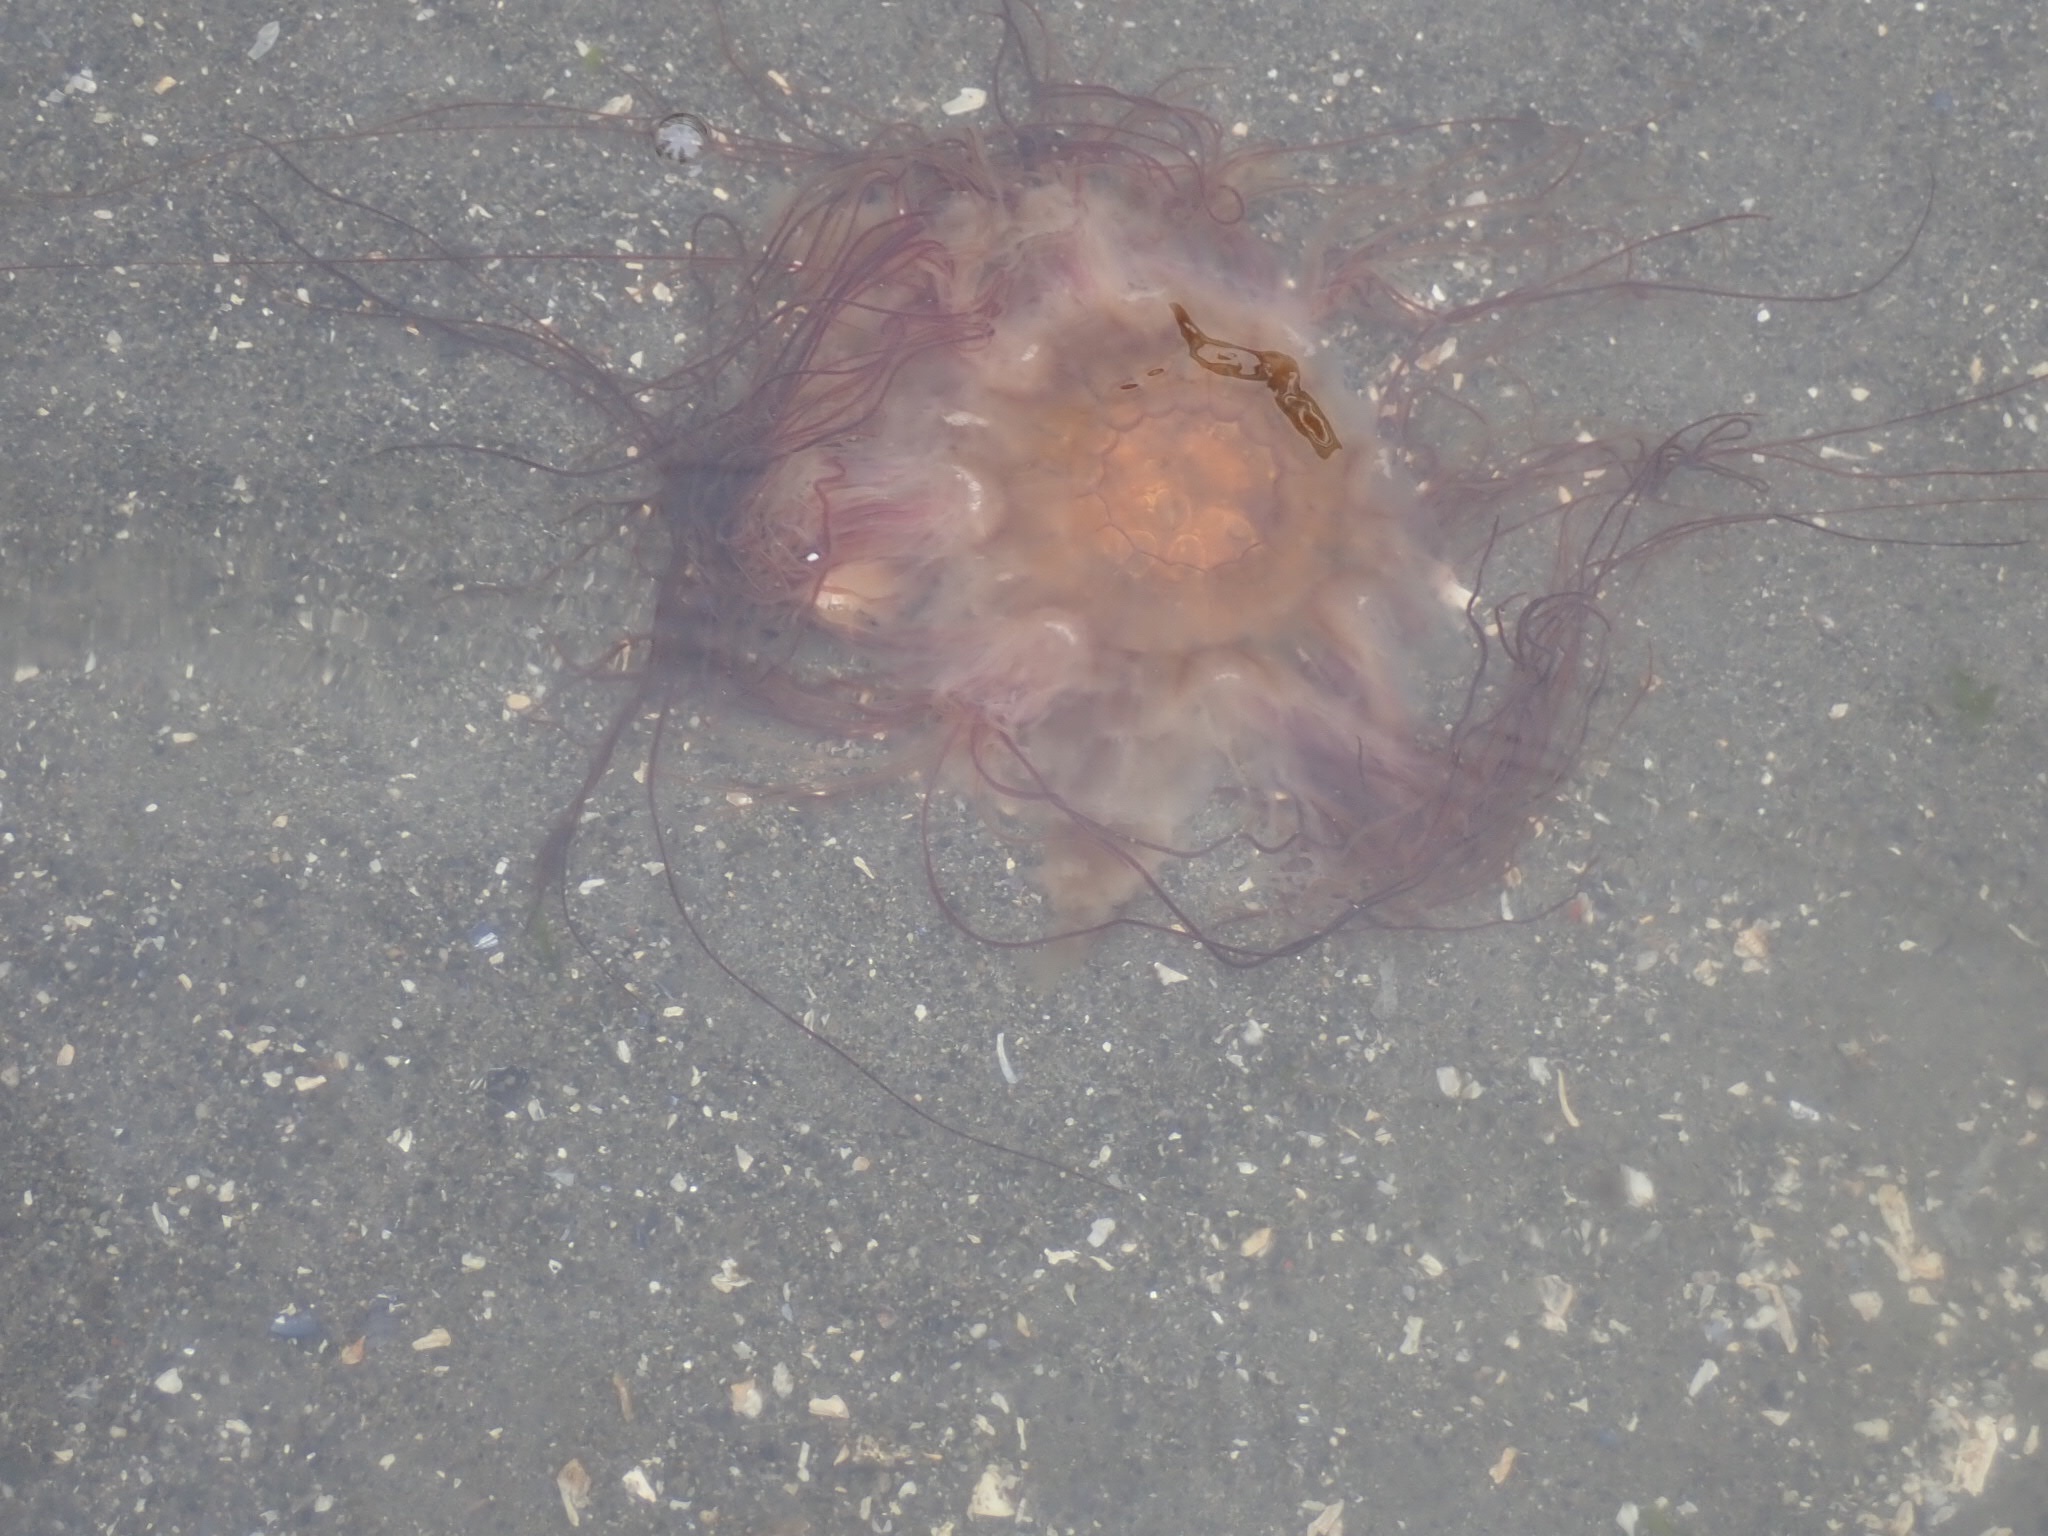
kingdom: Animalia
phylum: Cnidaria
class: Scyphozoa
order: Semaeostomeae
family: Cyaneidae
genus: Cyanea
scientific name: Cyanea ferruginea
